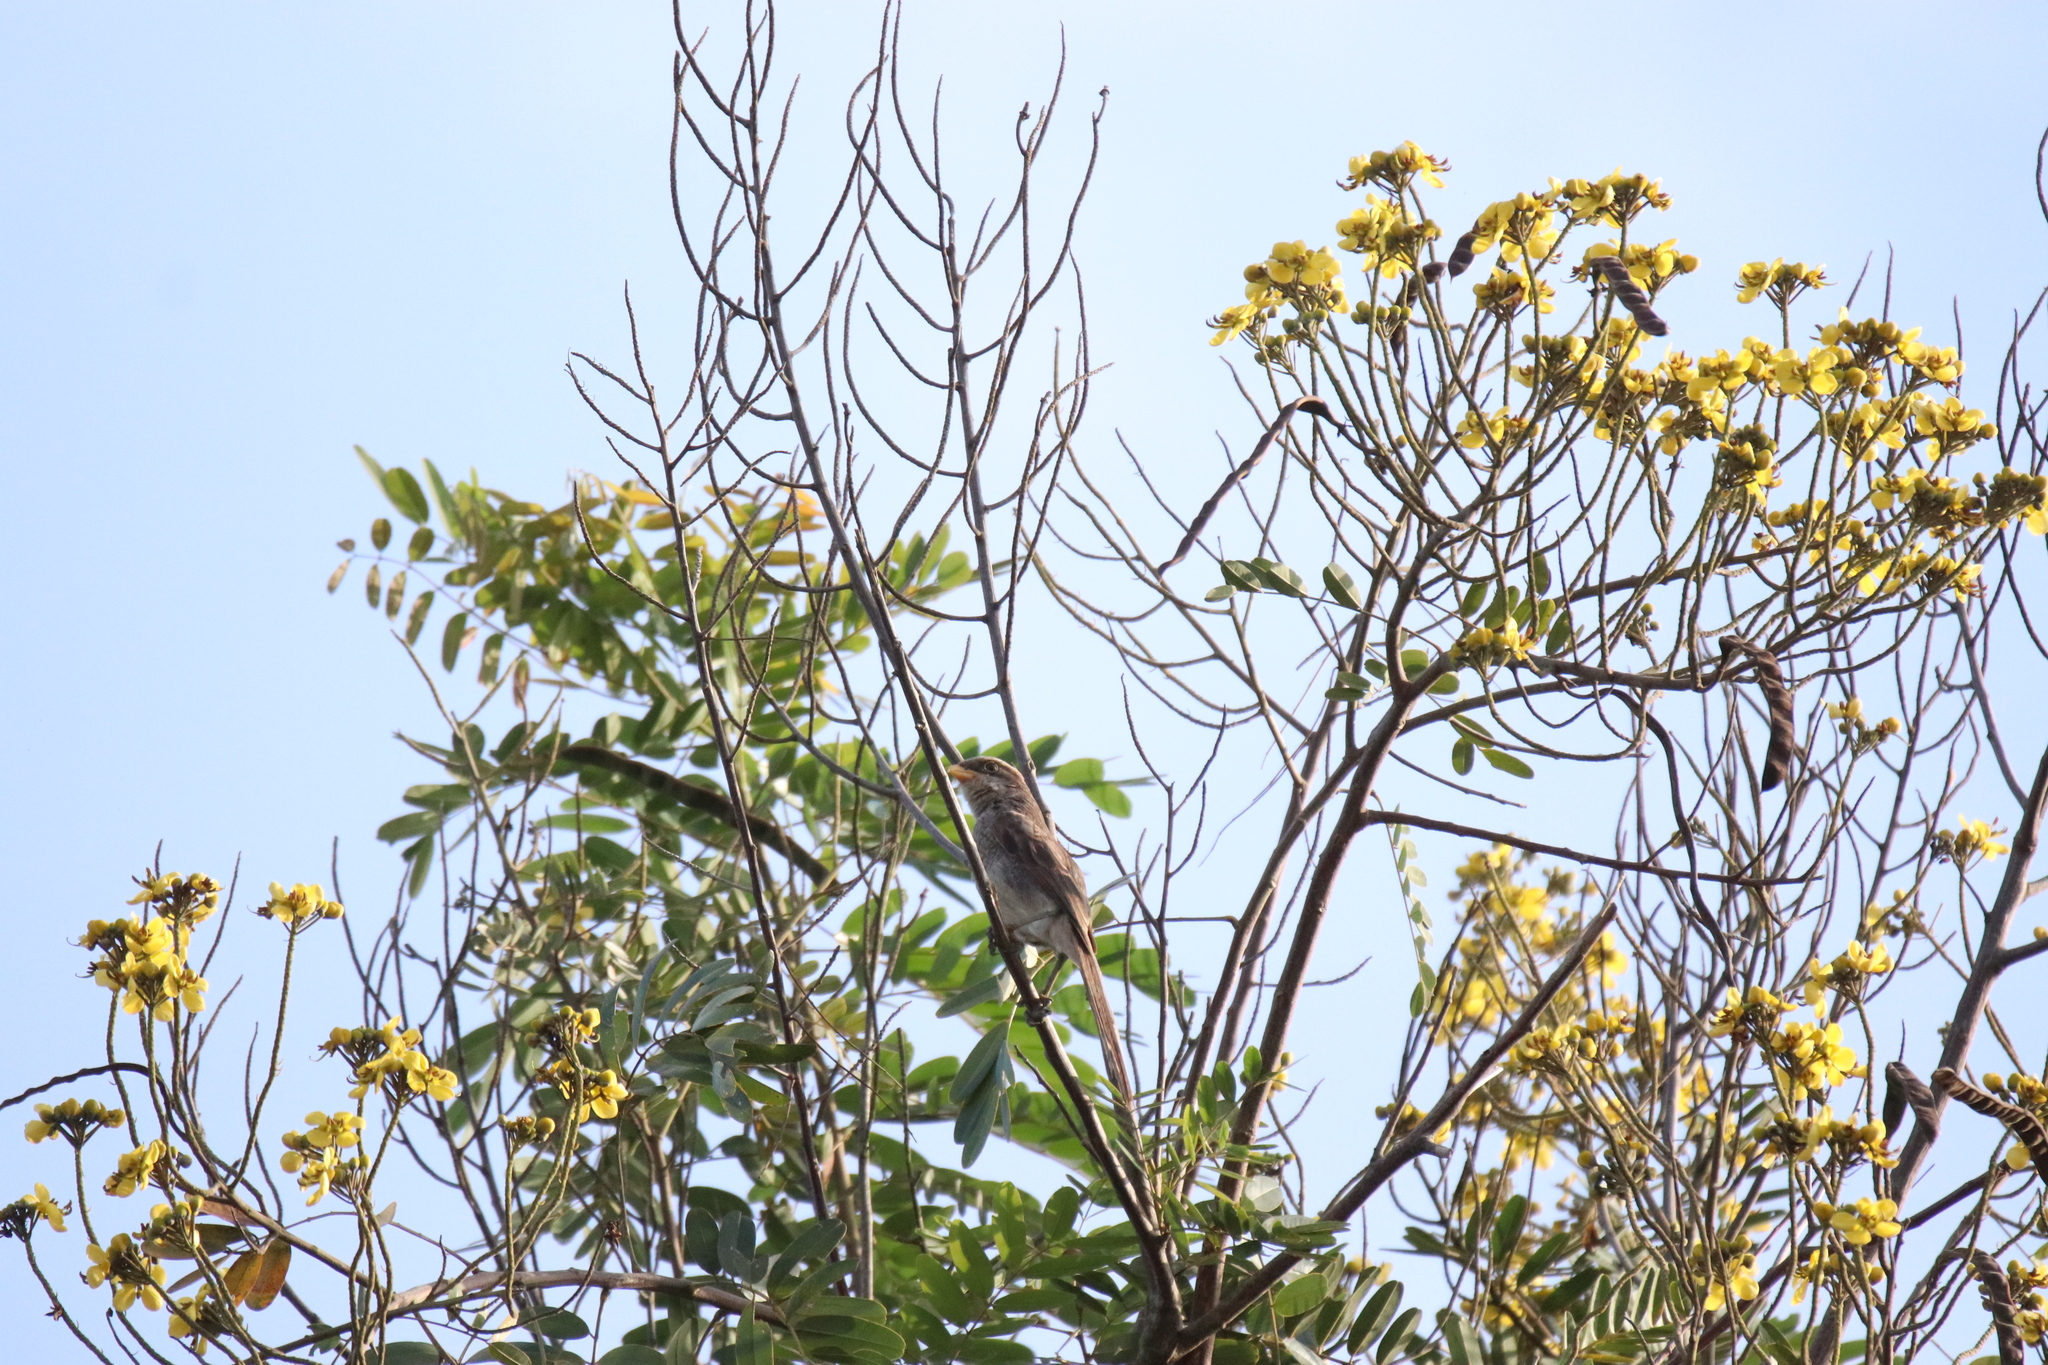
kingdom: Animalia
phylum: Chordata
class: Aves
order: Passeriformes
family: Laniidae
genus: Corvinella
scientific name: Corvinella corvina
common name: Yellow-billed shrike
